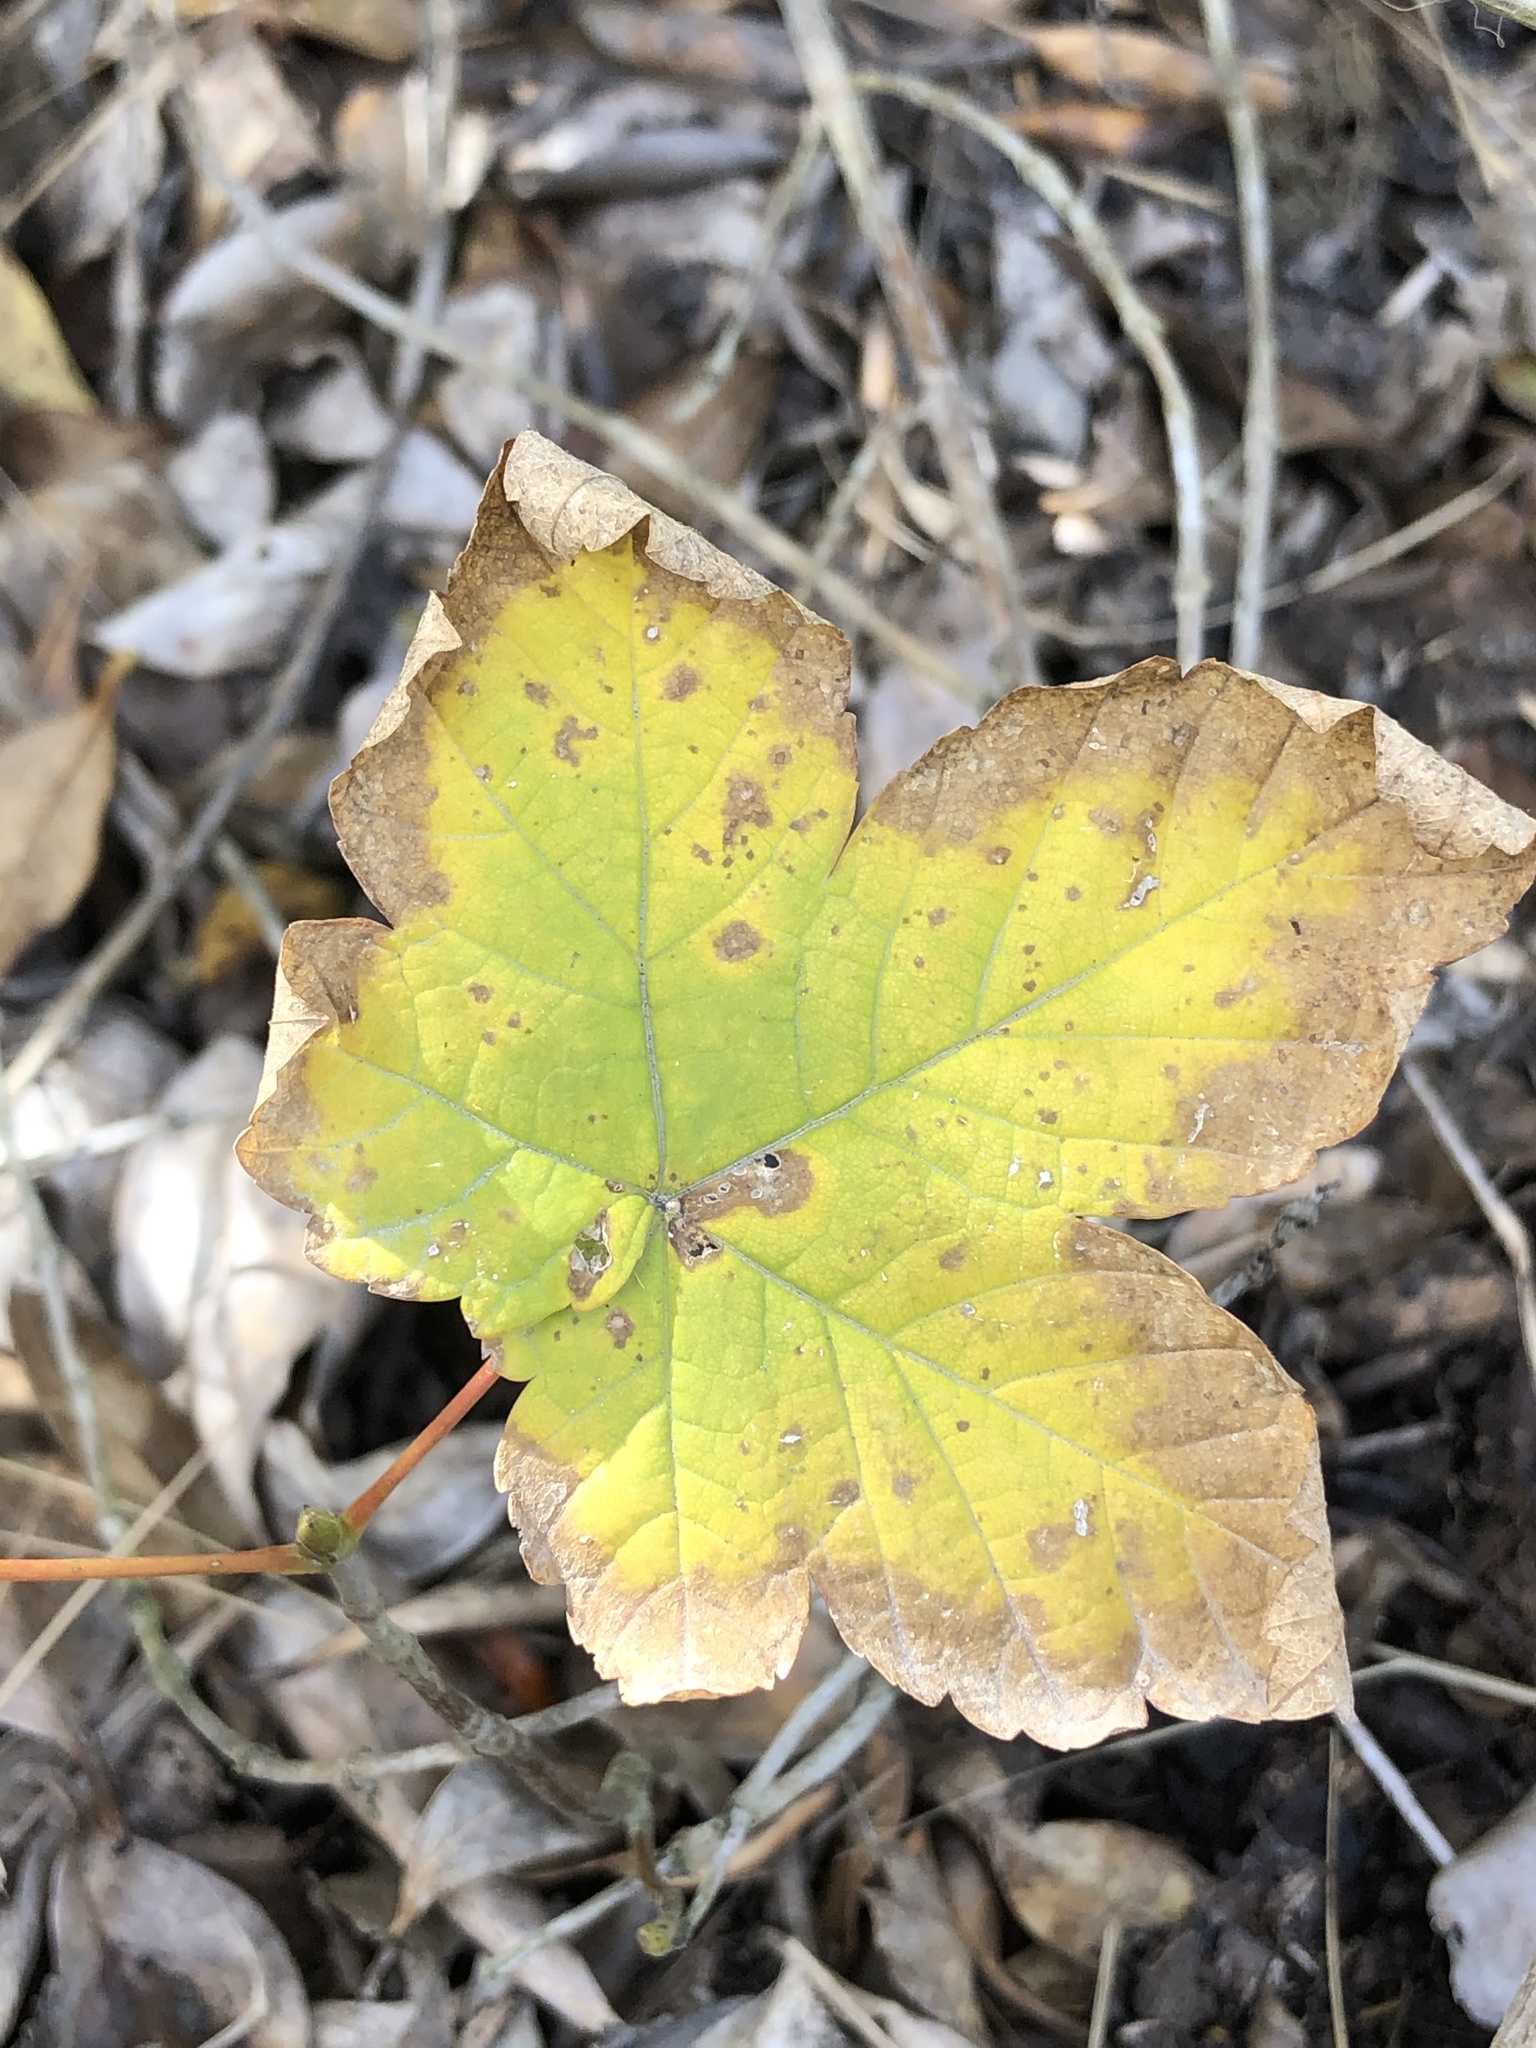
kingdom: Plantae
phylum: Tracheophyta
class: Magnoliopsida
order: Sapindales
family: Sapindaceae
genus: Acer
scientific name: Acer pseudoplatanus
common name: Sycamore
